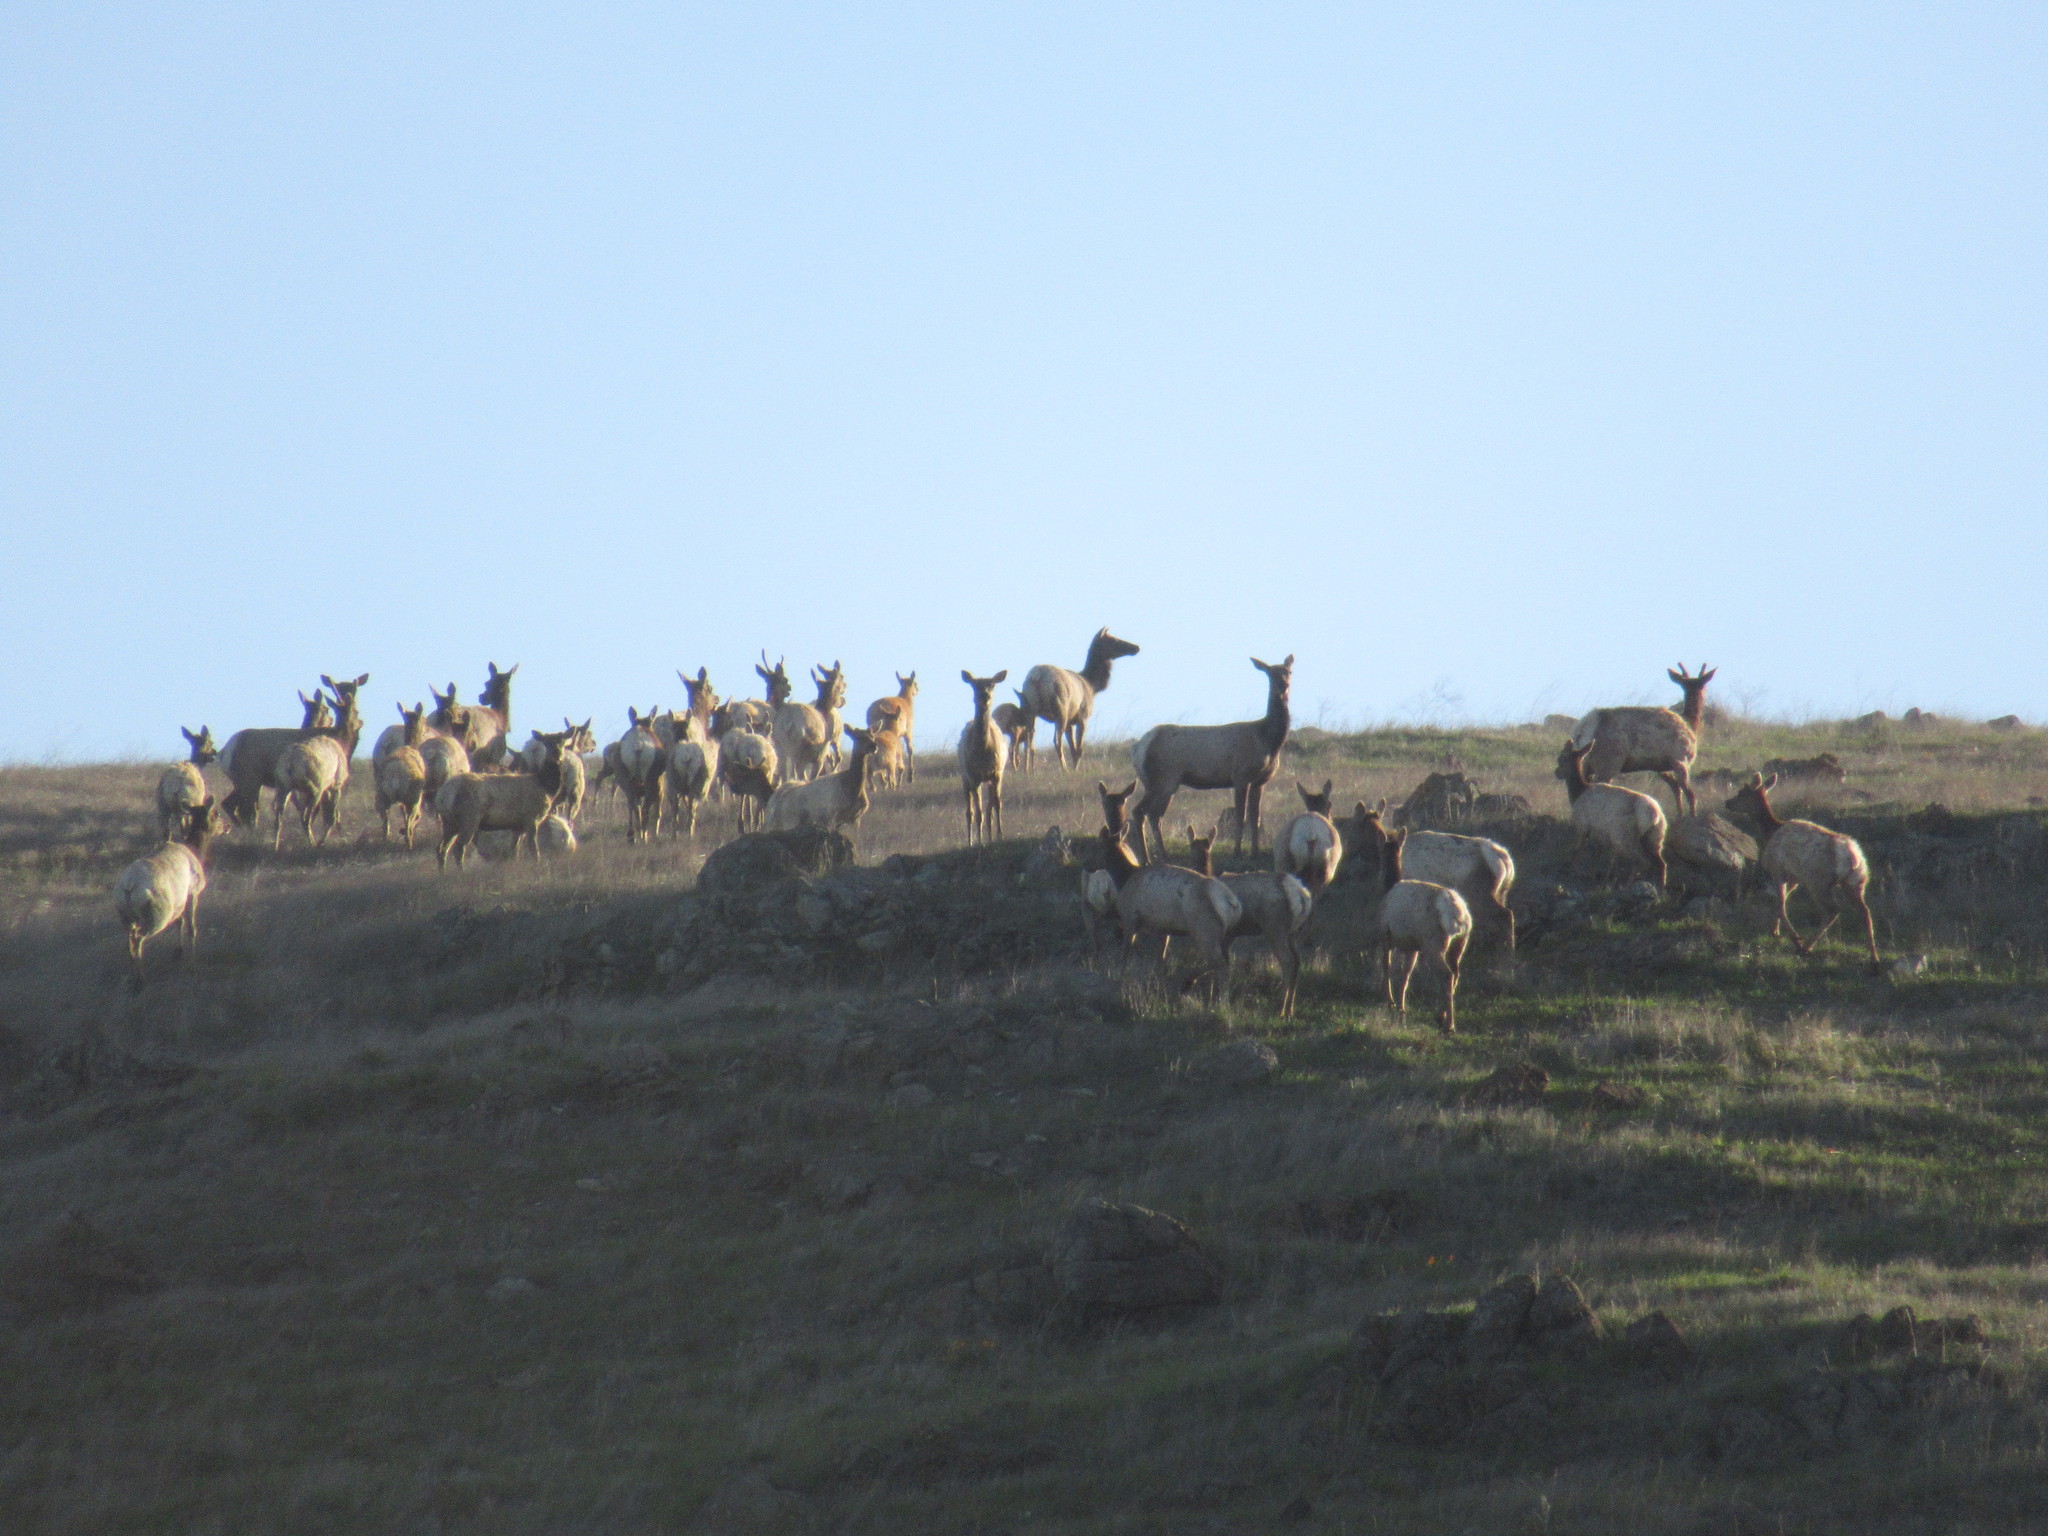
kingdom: Animalia
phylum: Chordata
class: Mammalia
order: Artiodactyla
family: Cervidae
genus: Cervus
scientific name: Cervus elaphus
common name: Red deer
